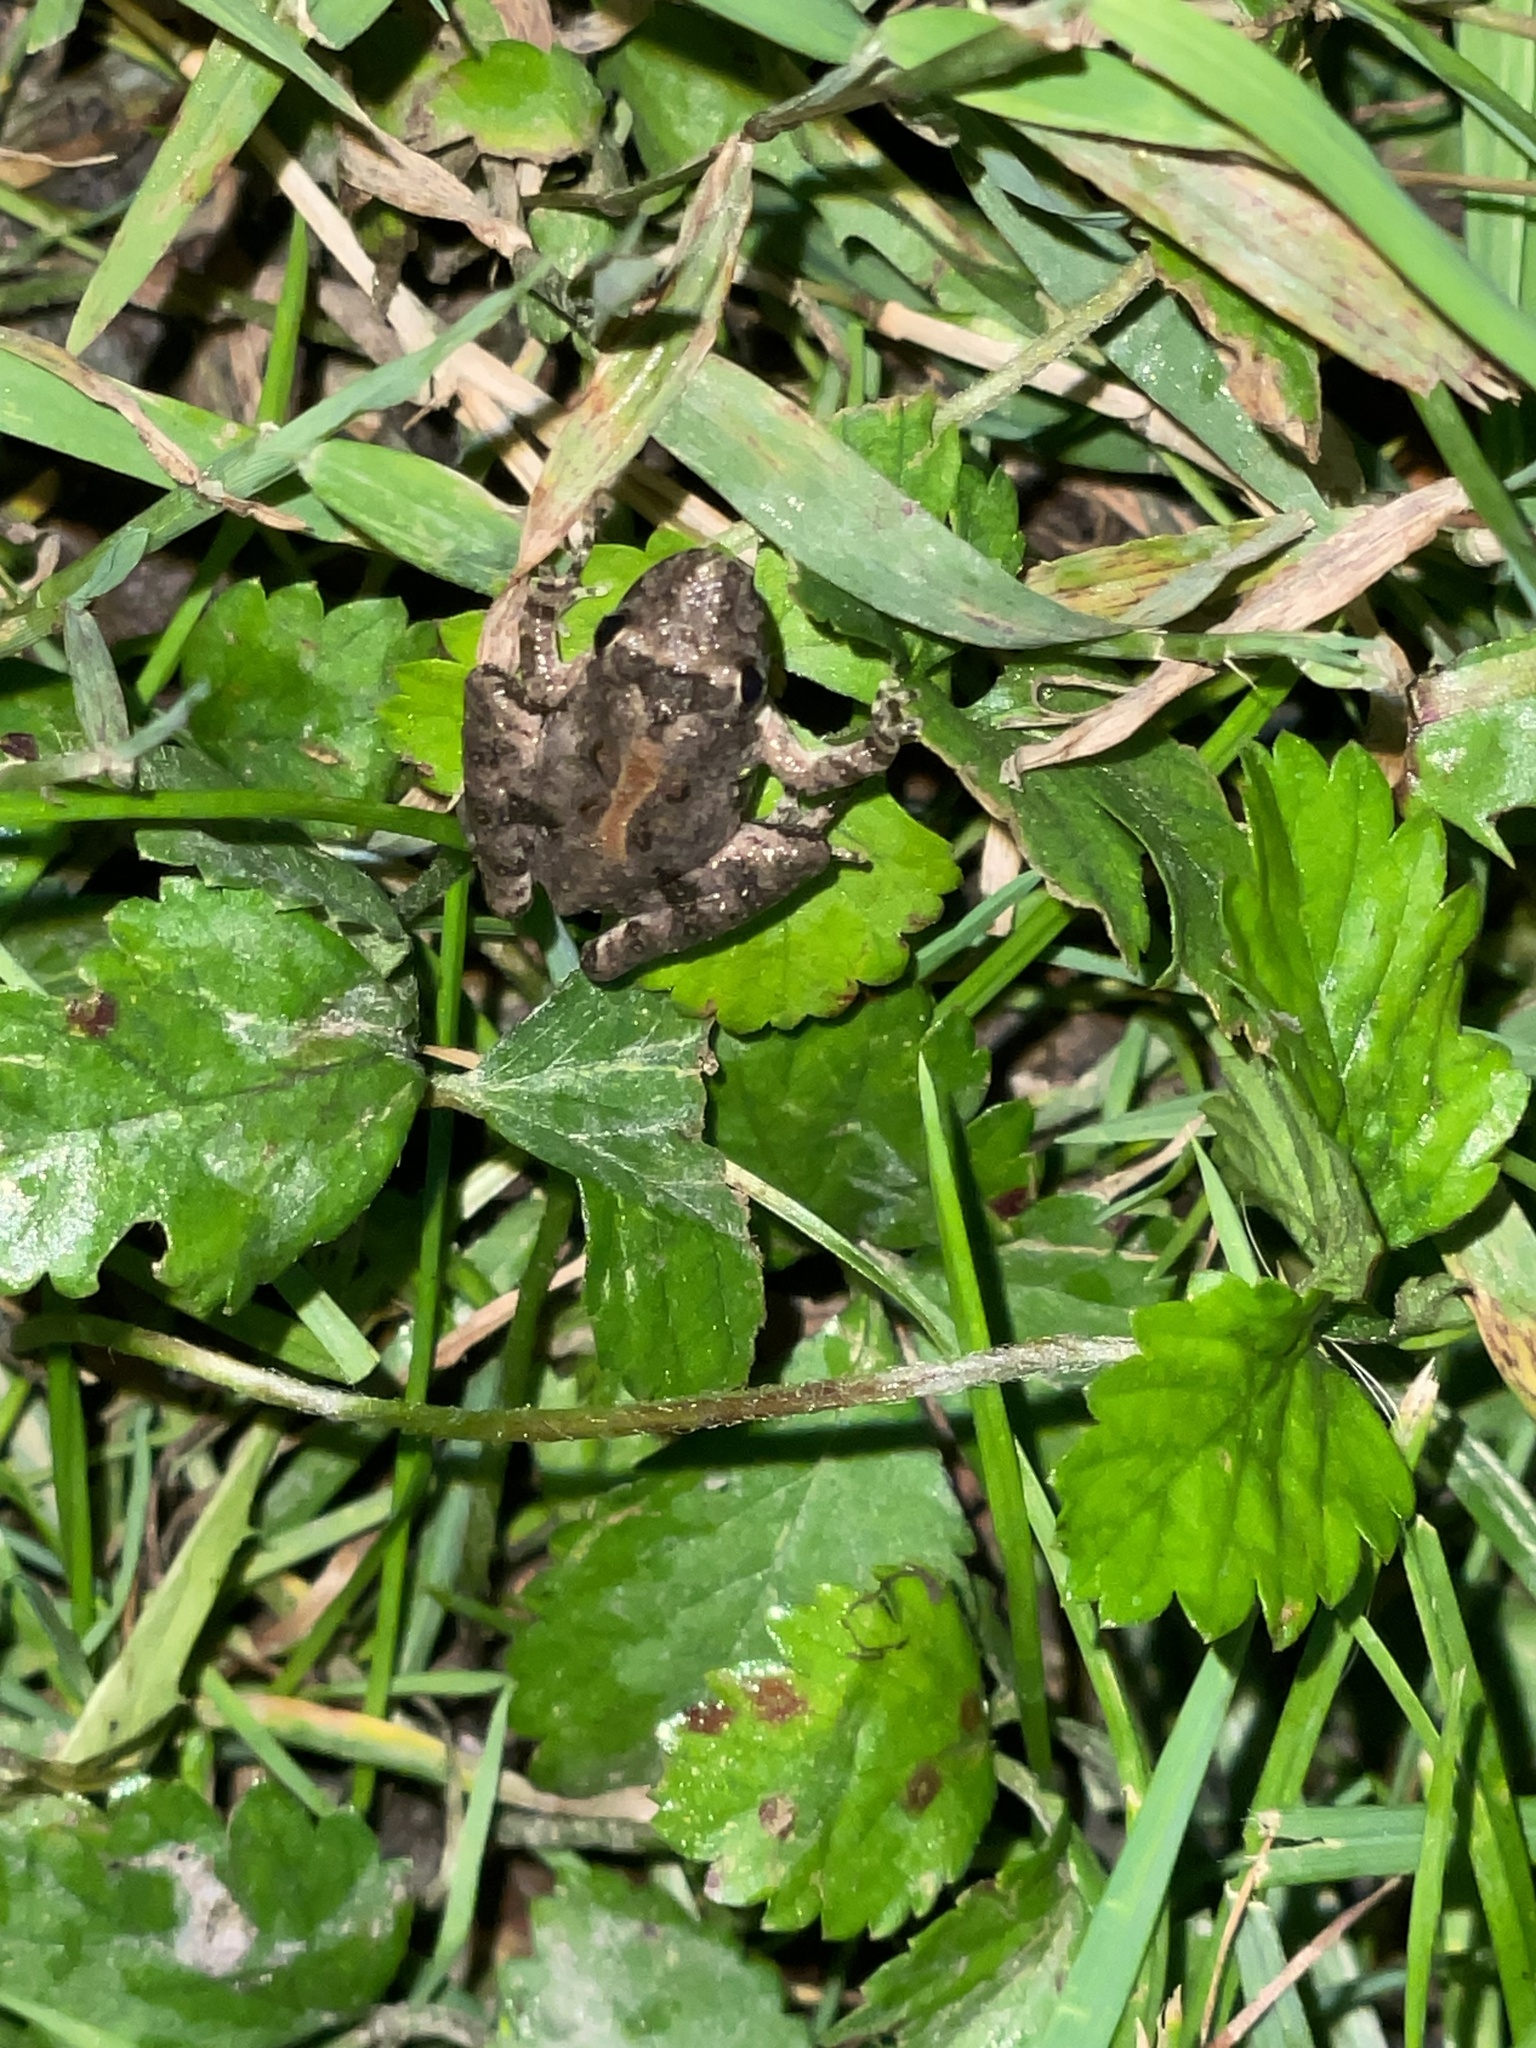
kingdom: Animalia
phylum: Chordata
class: Amphibia
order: Anura
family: Hylidae
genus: Acris
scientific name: Acris crepitans
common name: Northern cricket frog
